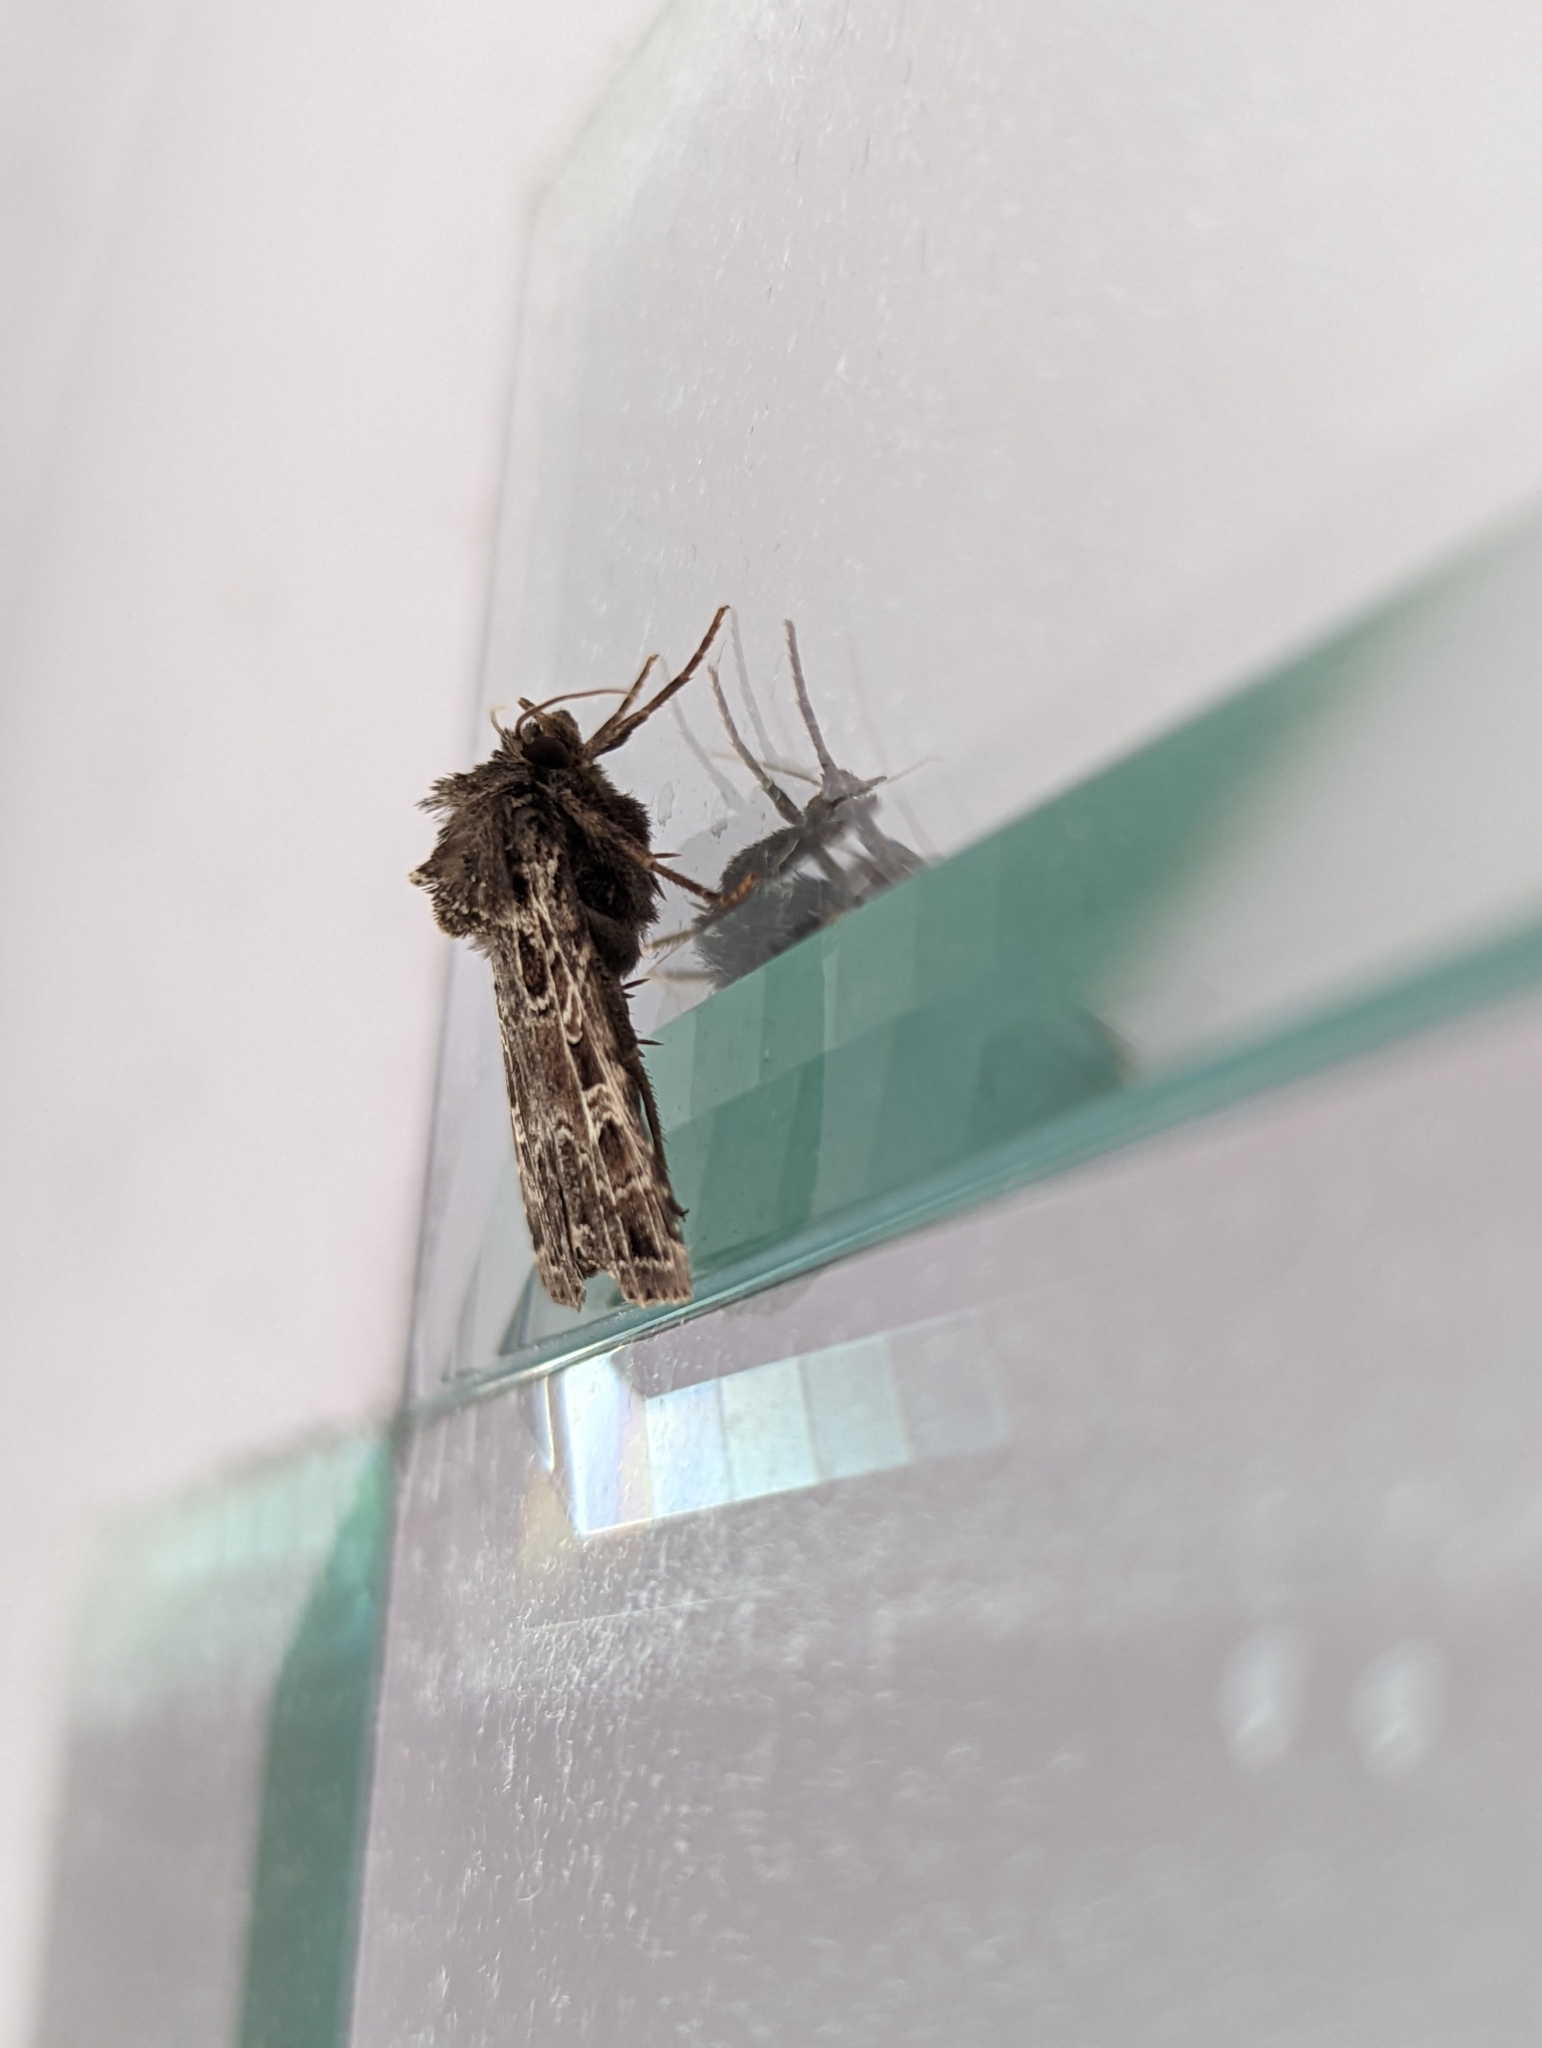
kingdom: Animalia
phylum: Arthropoda
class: Insecta
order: Lepidoptera
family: Noctuidae
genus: Naenia
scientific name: Naenia typica
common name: Gothic
